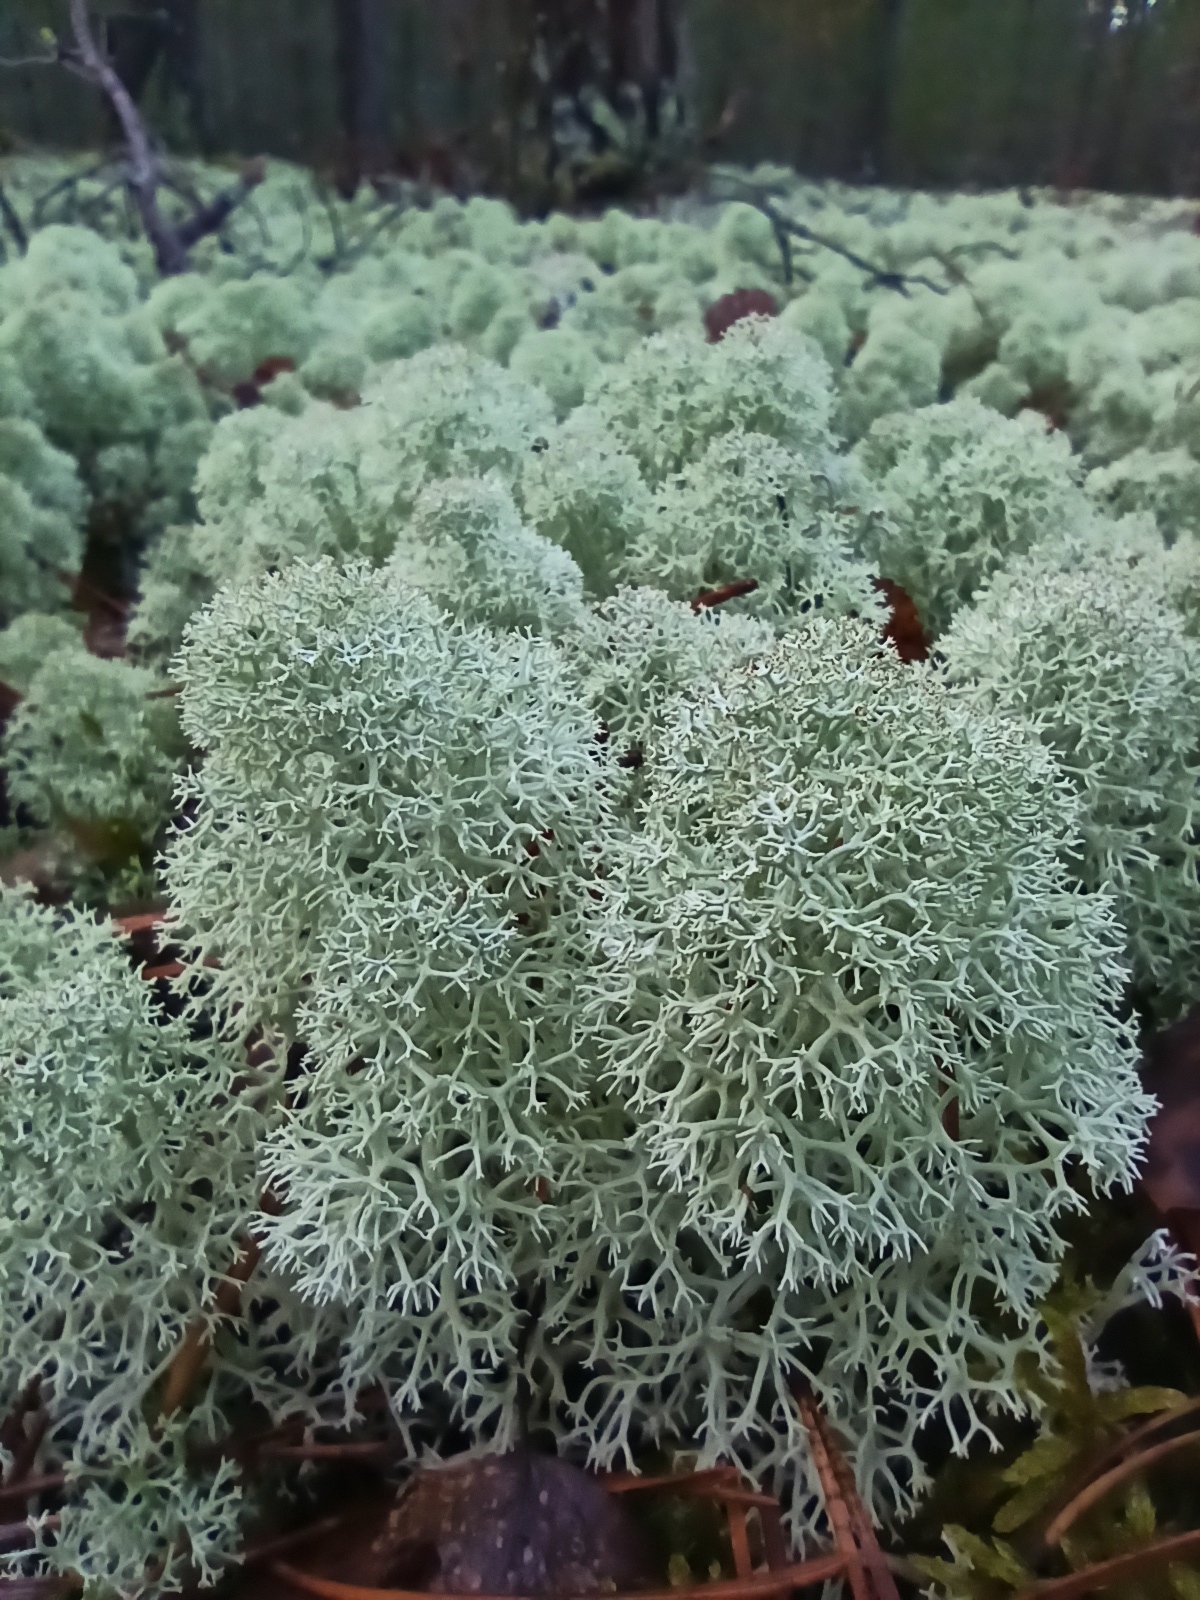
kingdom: Fungi
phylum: Ascomycota
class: Lecanoromycetes
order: Lecanorales
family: Cladoniaceae
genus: Cladonia
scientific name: Cladonia stellaris
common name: Star-tipped reindeer lichen
